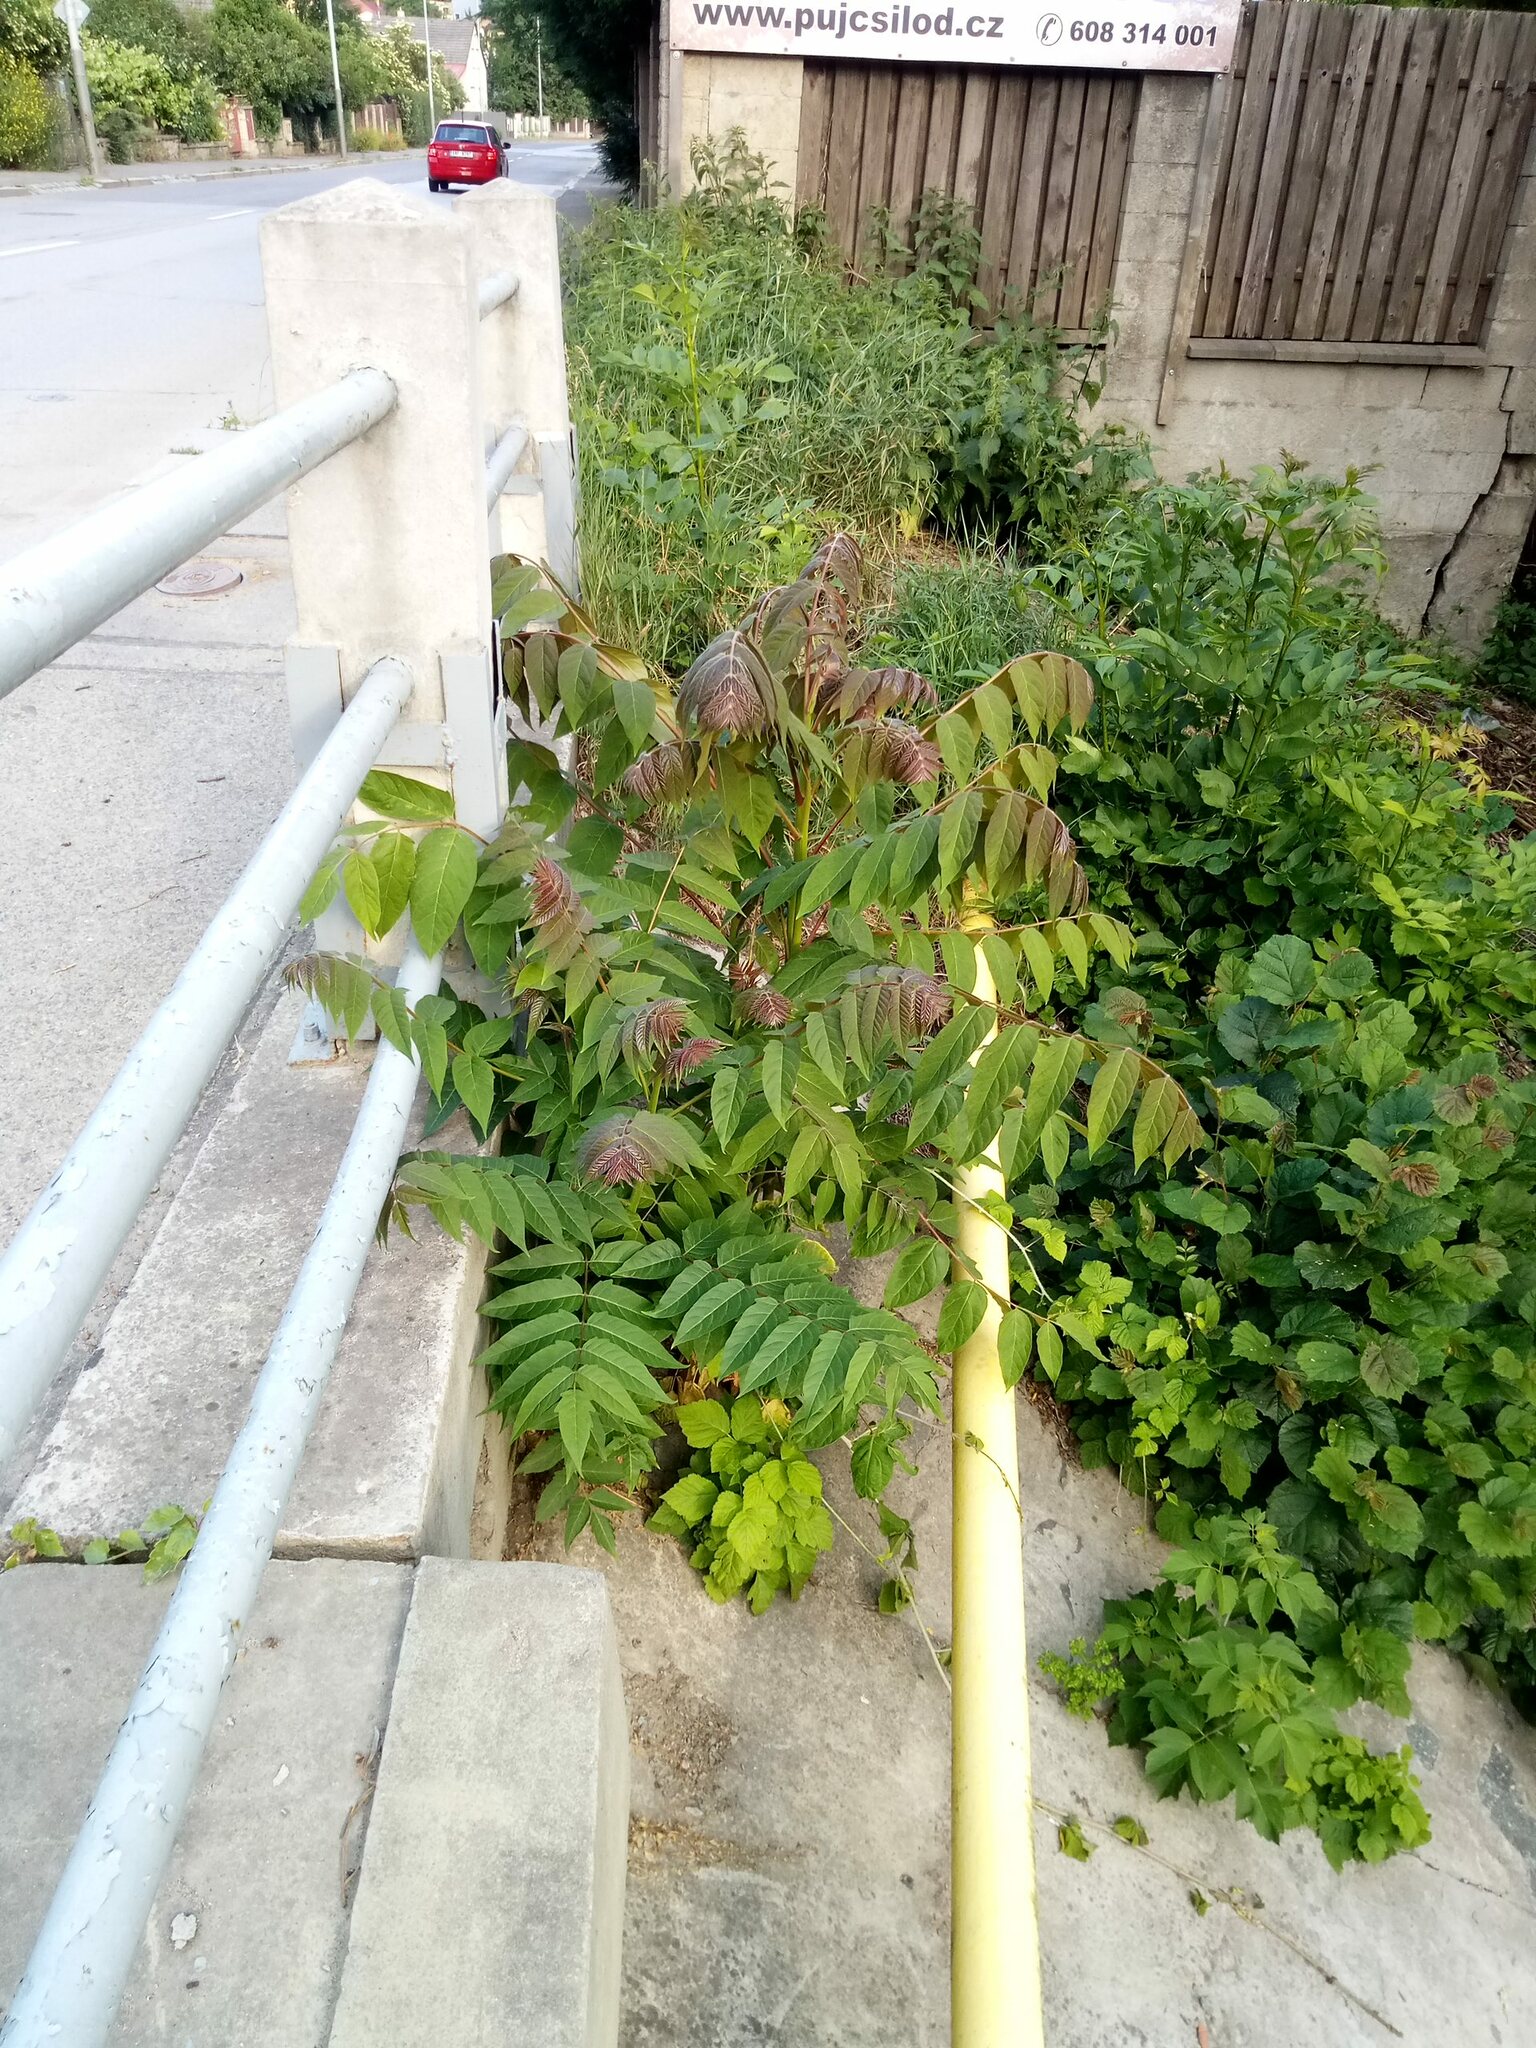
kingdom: Plantae
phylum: Tracheophyta
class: Magnoliopsida
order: Sapindales
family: Simaroubaceae
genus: Ailanthus
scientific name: Ailanthus altissima
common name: Tree-of-heaven
